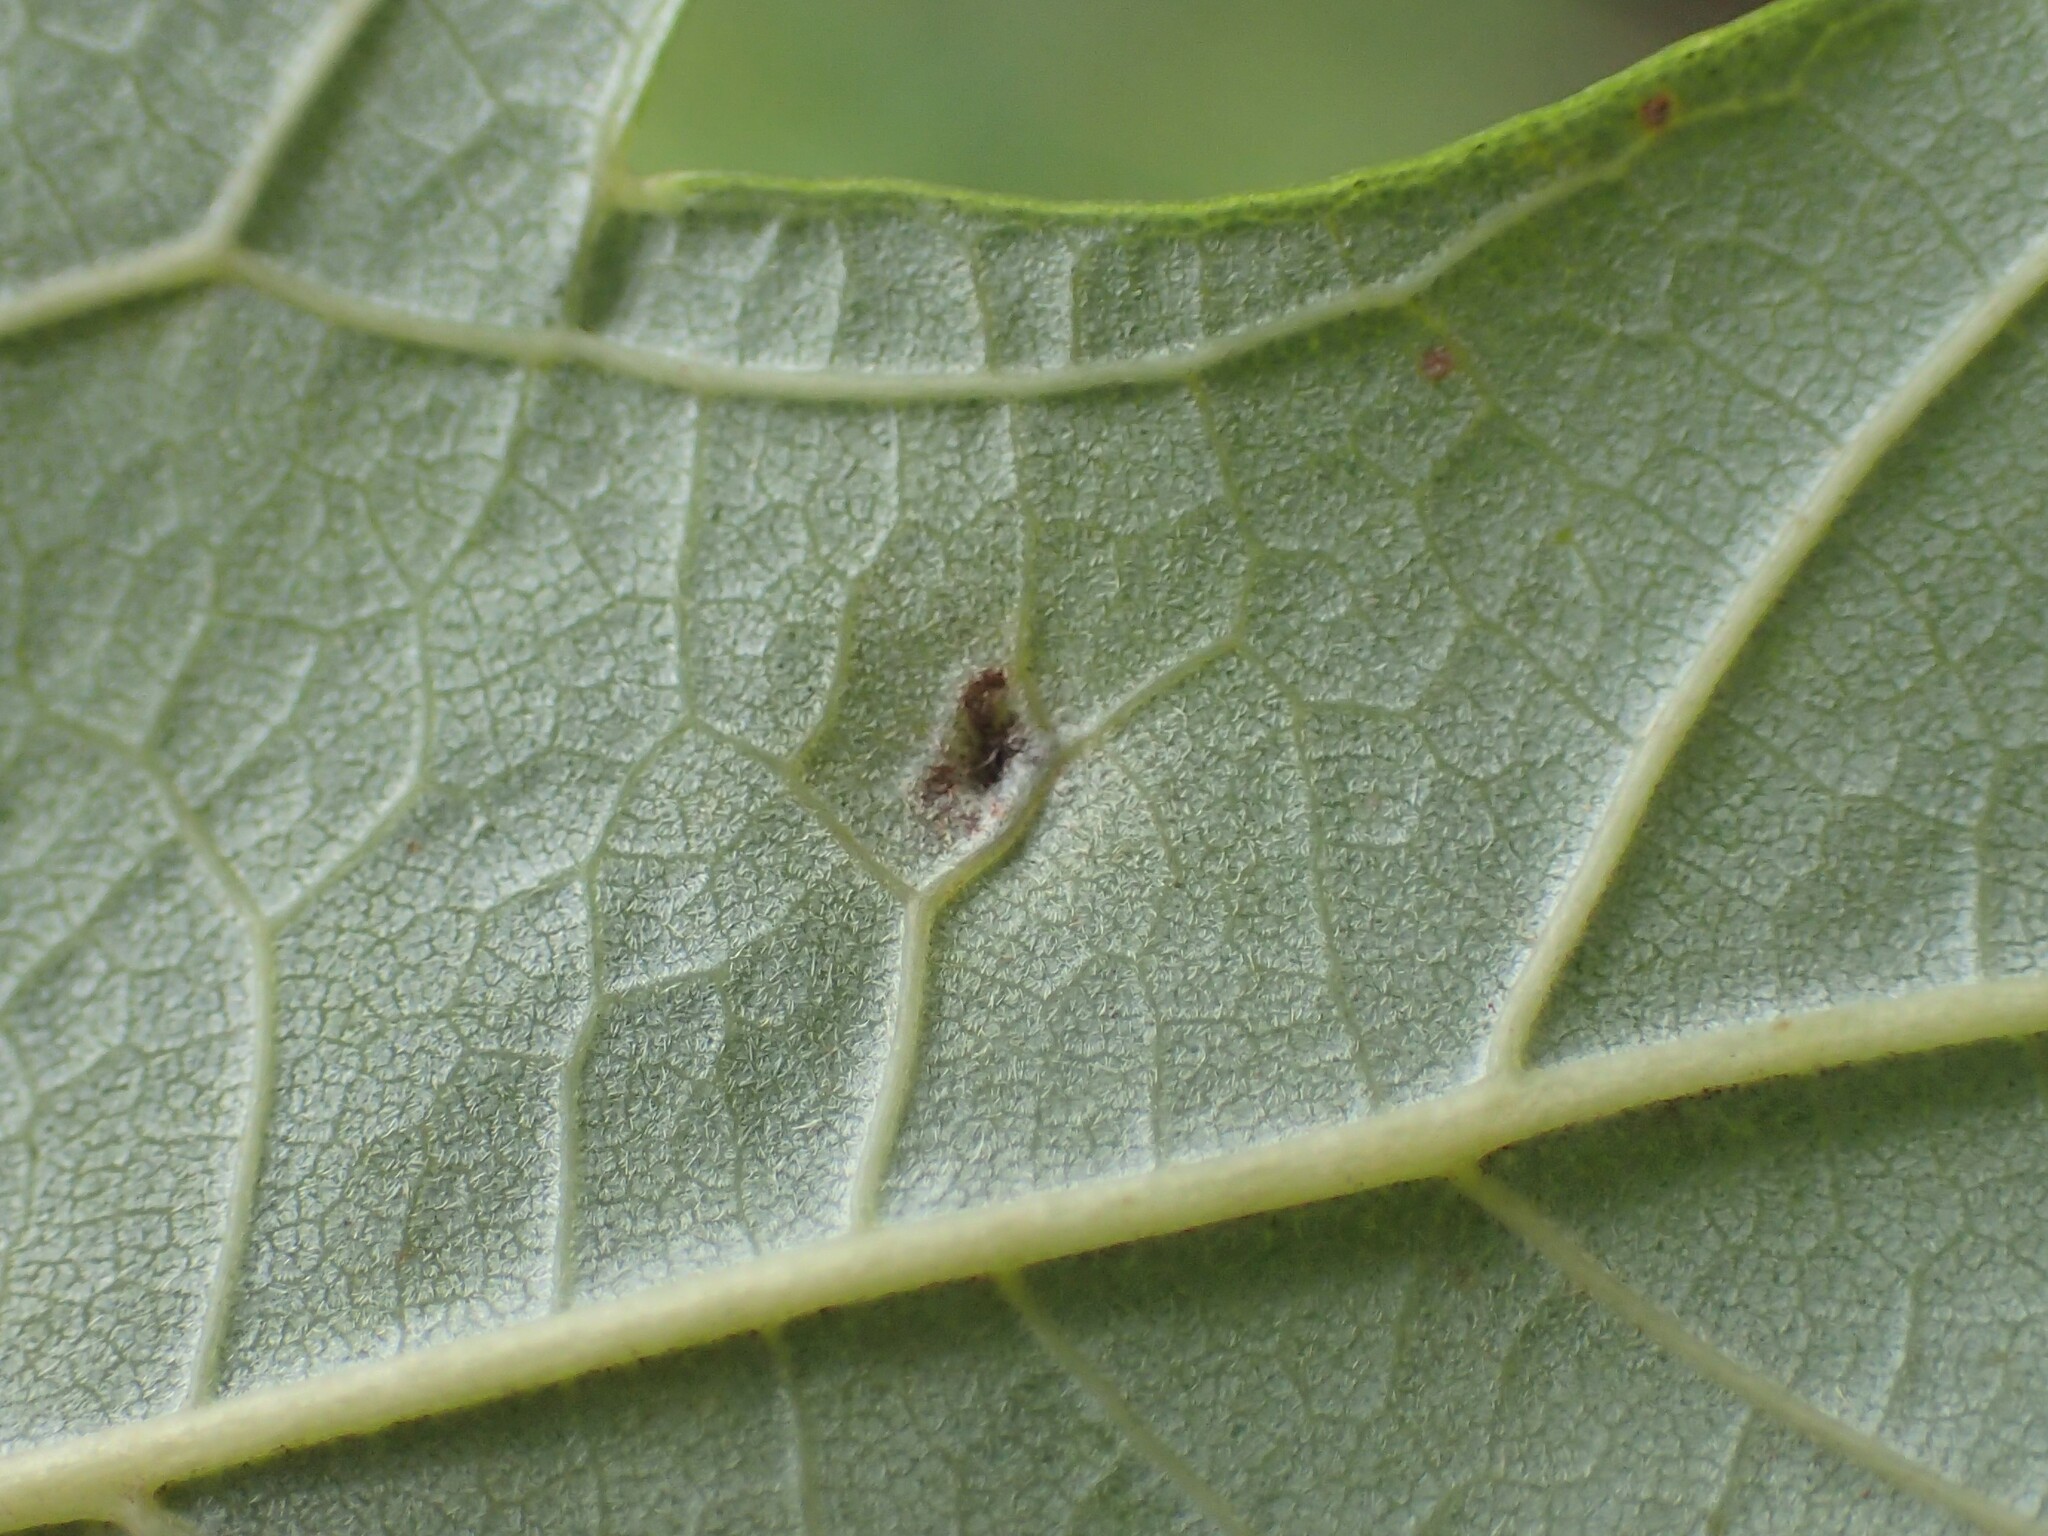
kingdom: Animalia
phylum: Arthropoda
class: Arachnida
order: Trombidiformes
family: Eriophyidae
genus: Vasates
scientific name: Vasates quadripedes
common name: Maple bladder gall mite
